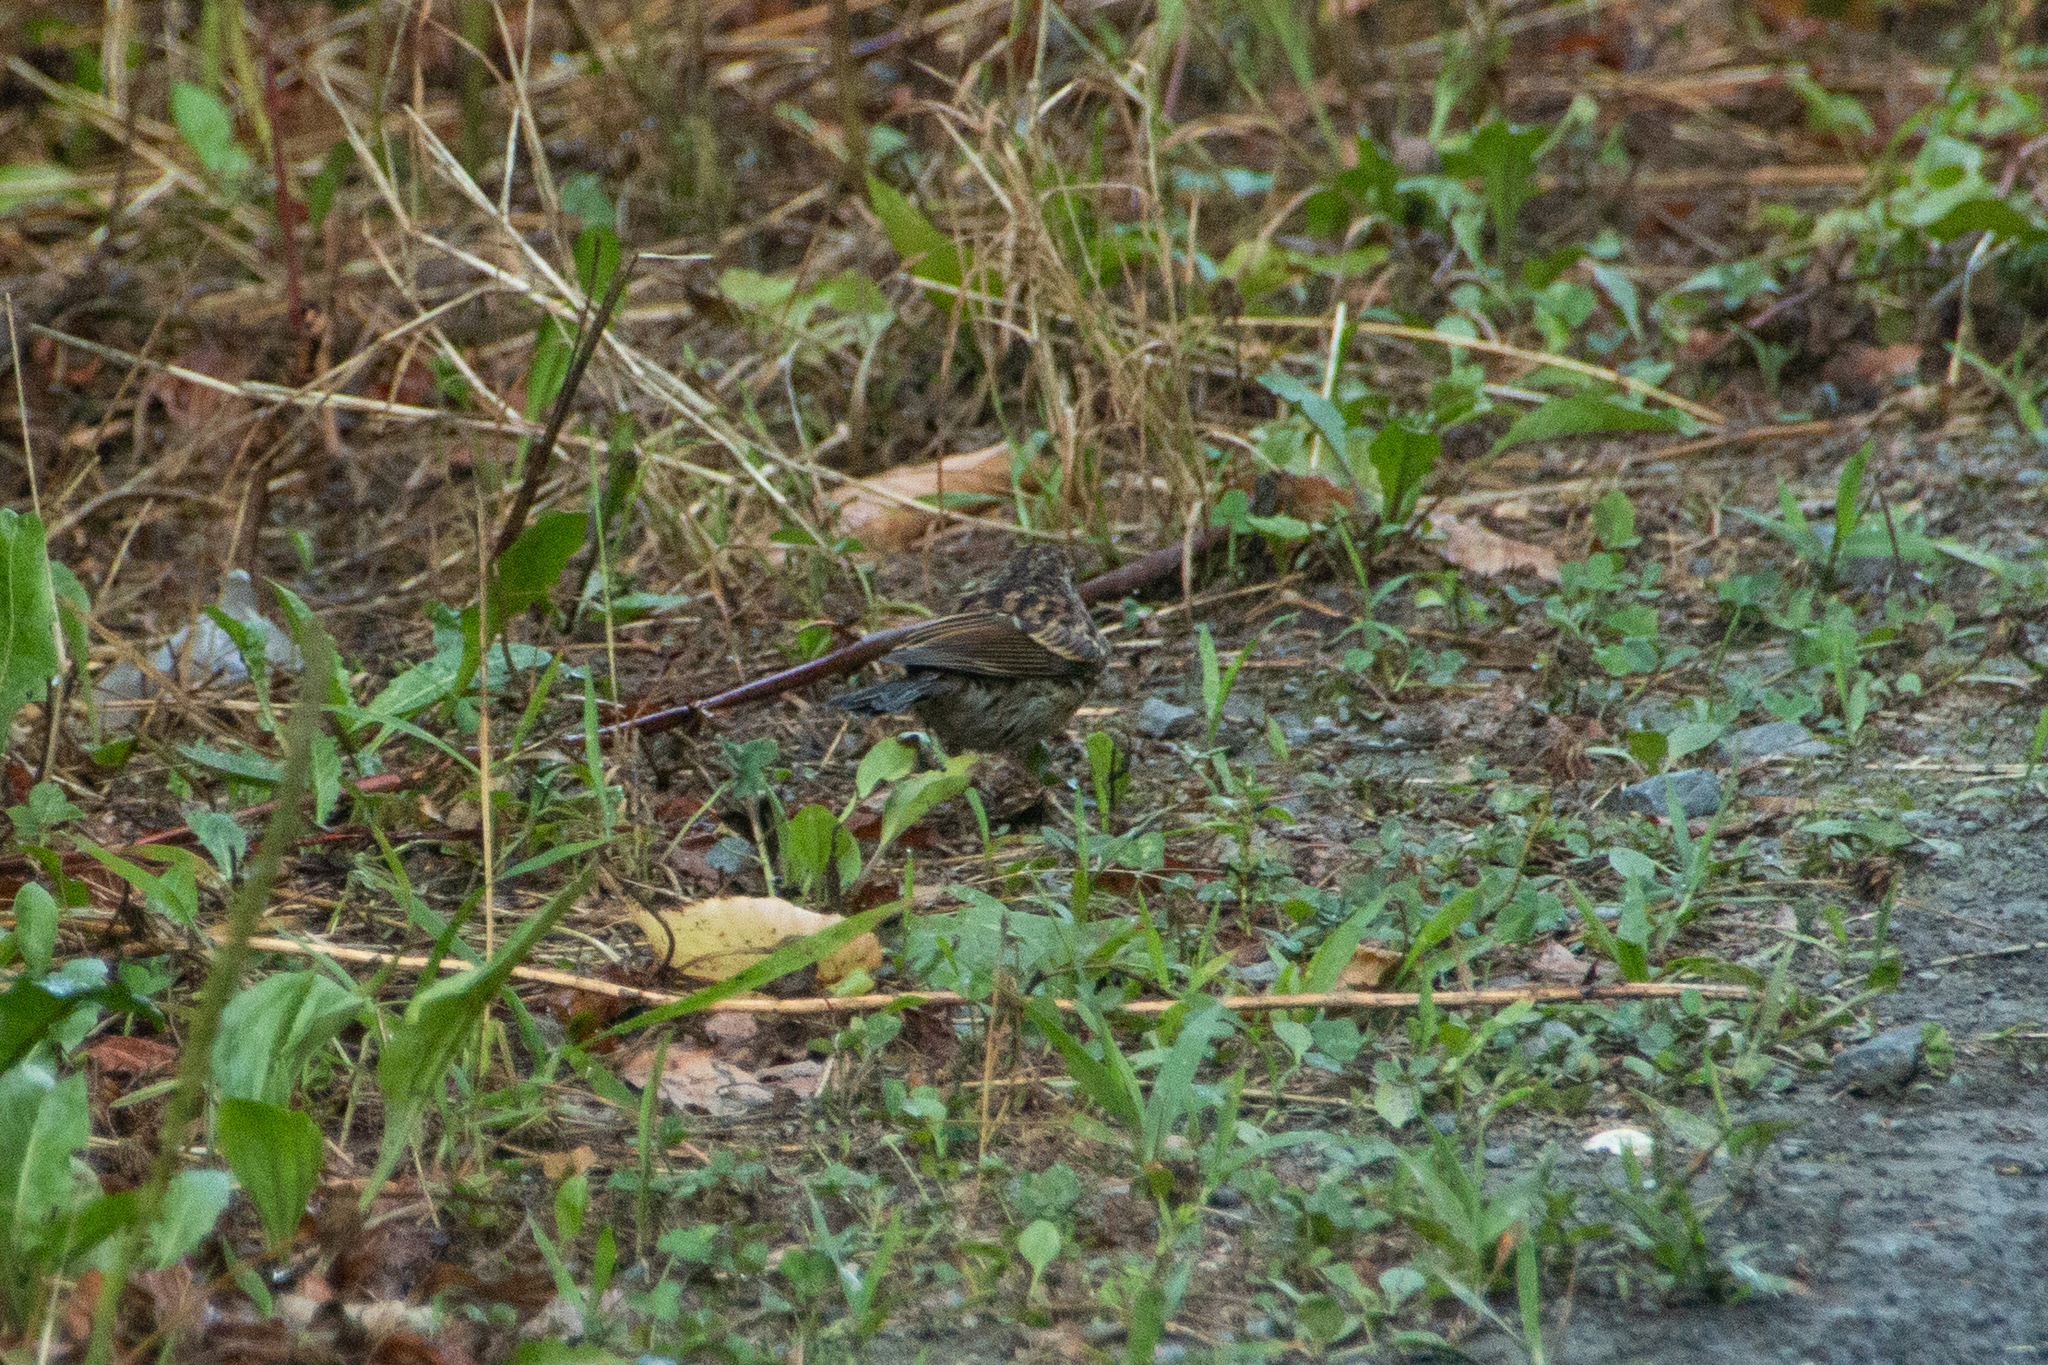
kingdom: Animalia
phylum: Chordata
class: Aves
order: Passeriformes
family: Passerellidae
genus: Spizella
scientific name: Spizella passerina
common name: Chipping sparrow
